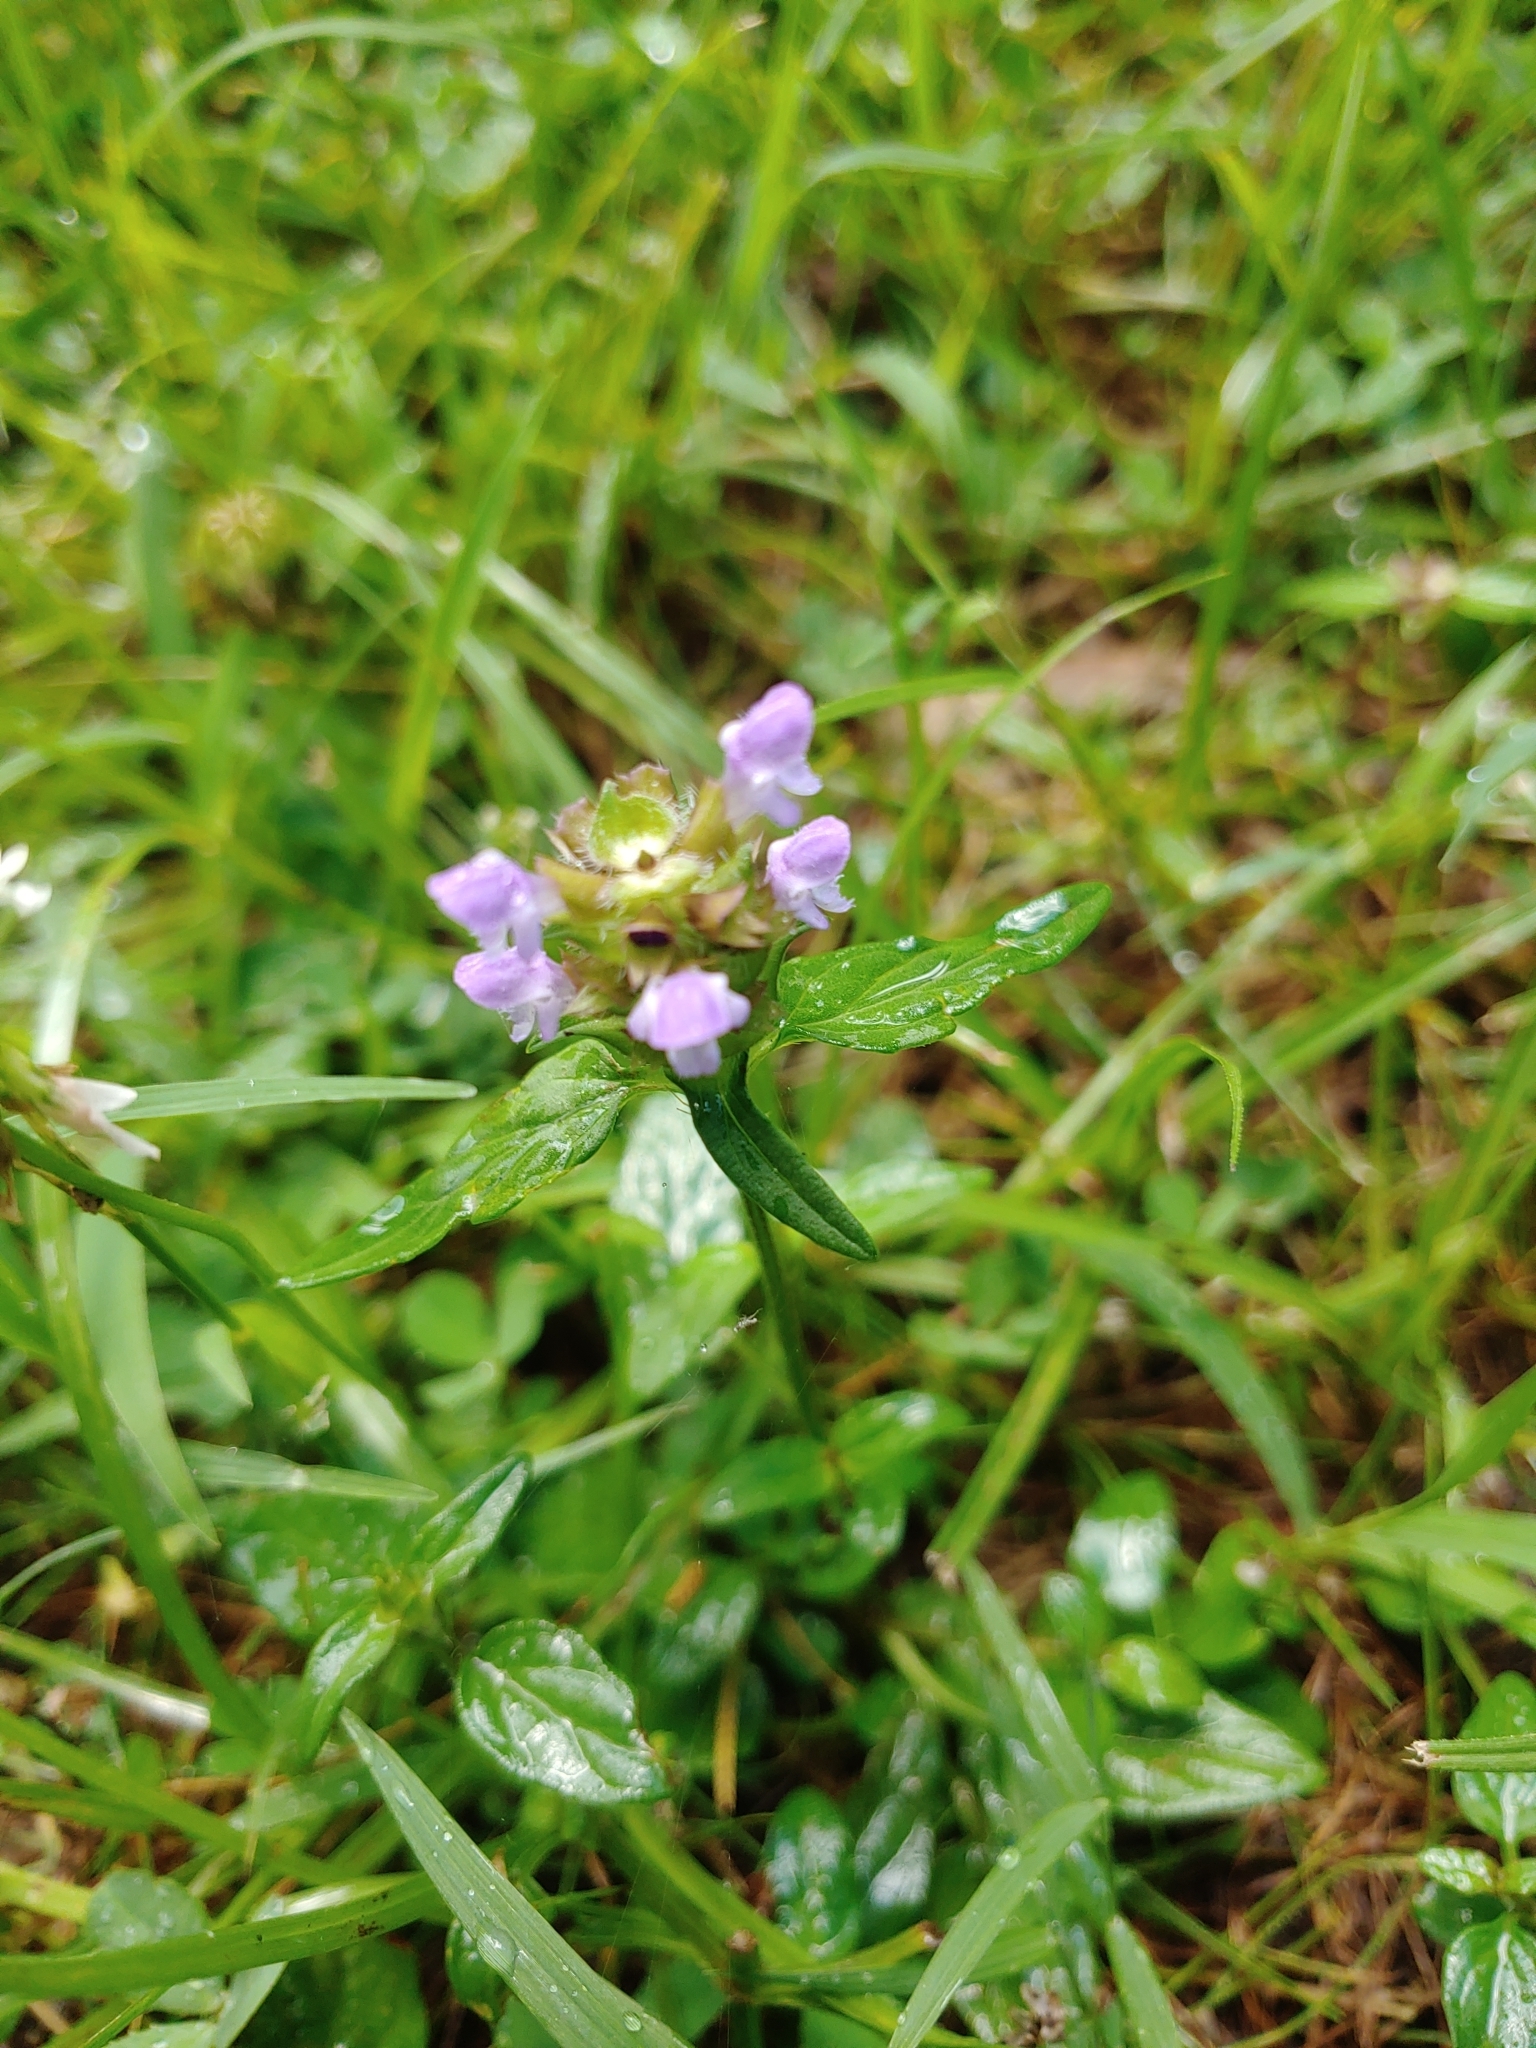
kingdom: Plantae
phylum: Tracheophyta
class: Magnoliopsida
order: Lamiales
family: Lamiaceae
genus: Prunella
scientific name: Prunella vulgaris
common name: Heal-all
